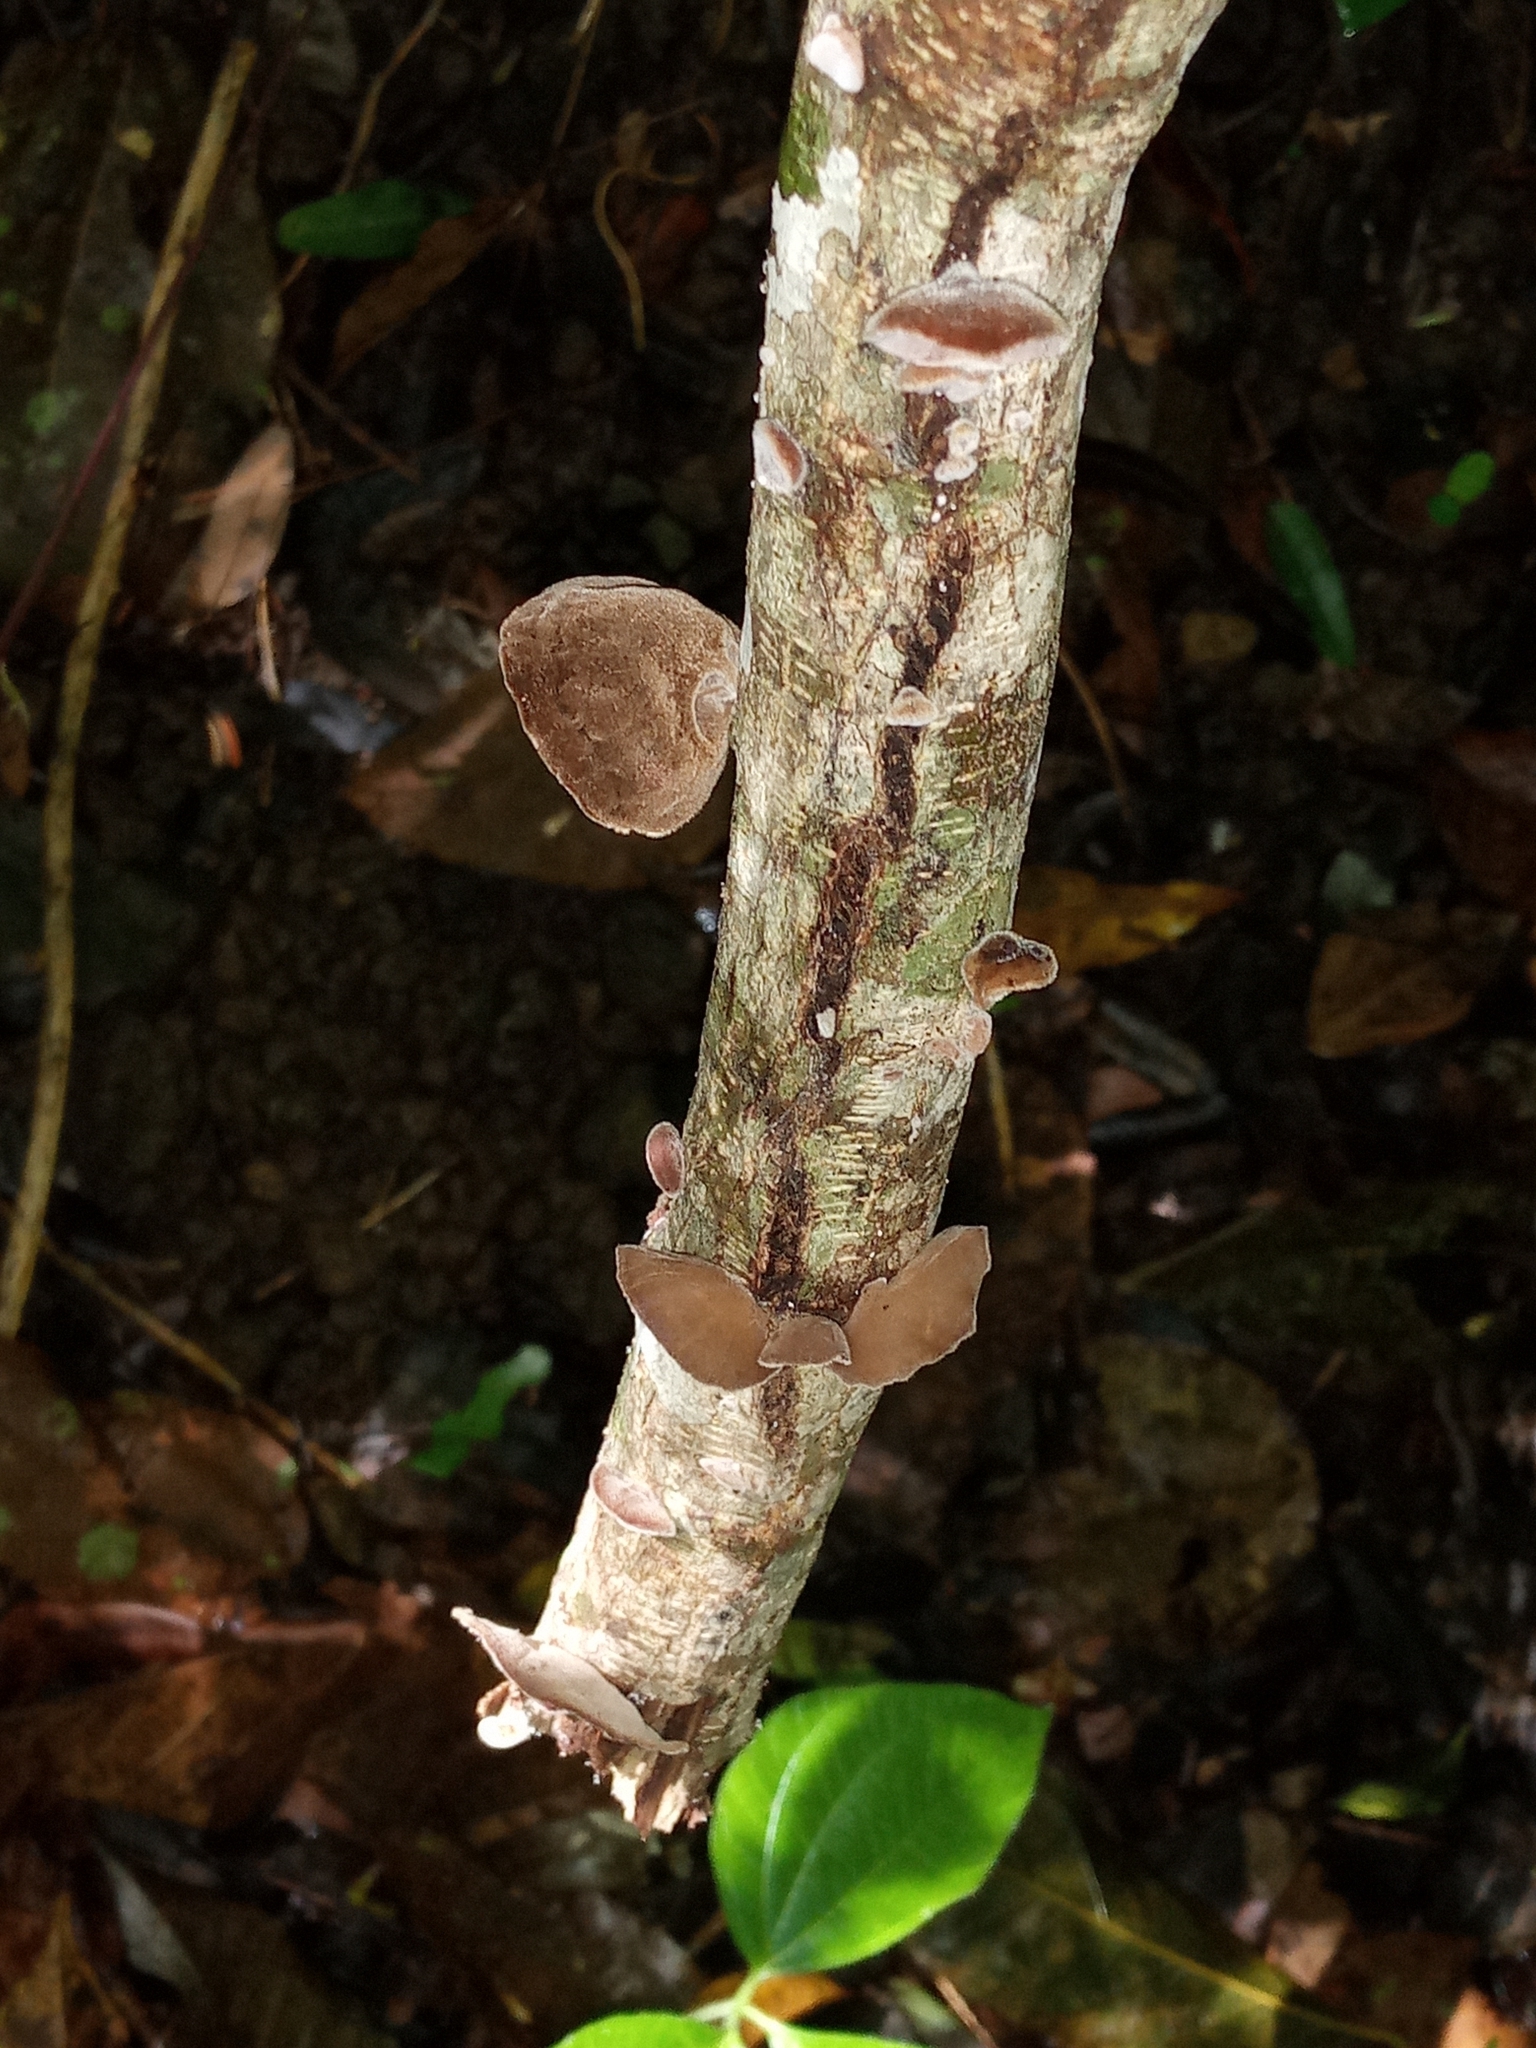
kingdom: Fungi
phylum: Basidiomycota
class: Agaricomycetes
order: Auriculariales
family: Auriculariaceae
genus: Auricularia
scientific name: Auricularia nigricans
